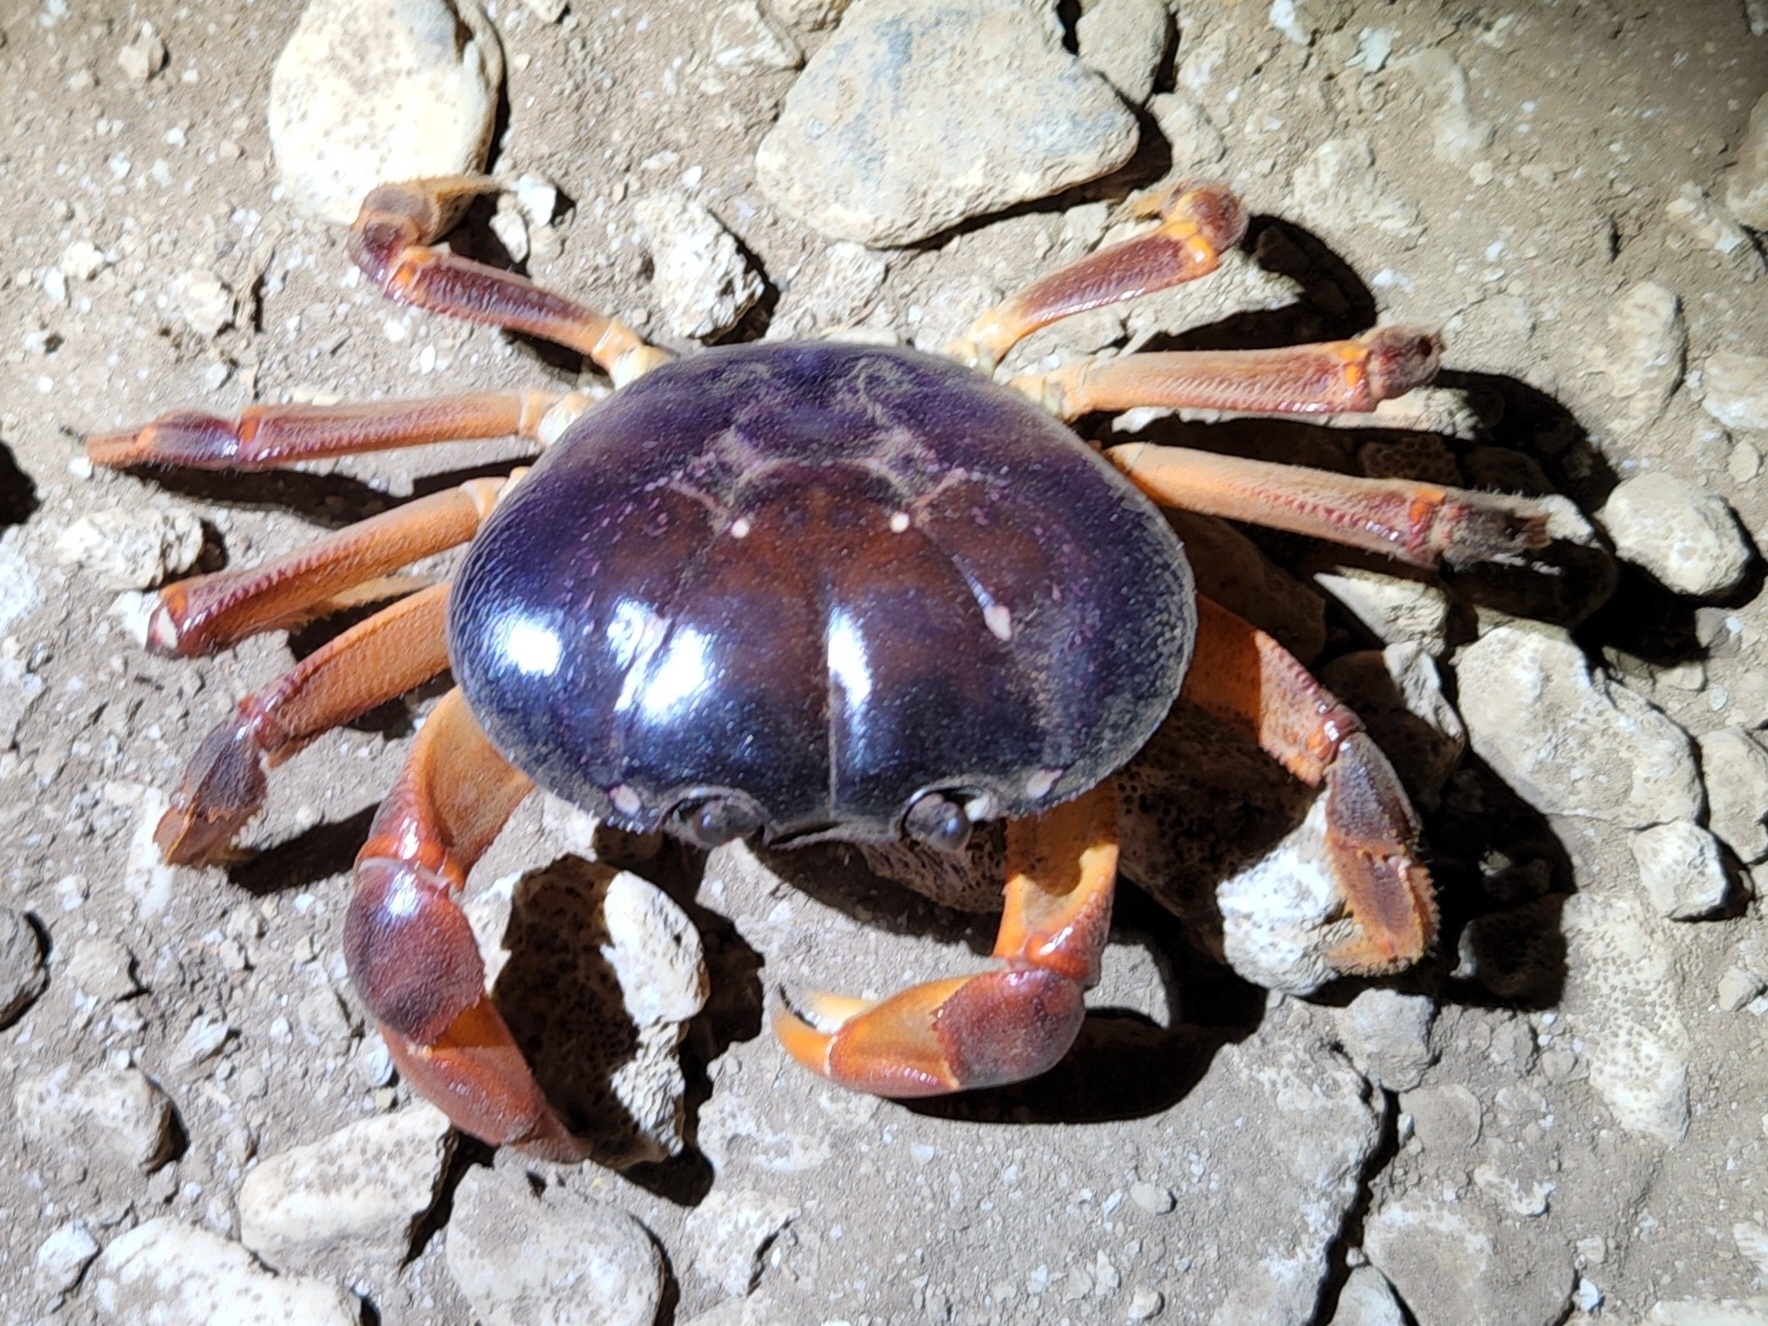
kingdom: Animalia
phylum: Arthropoda
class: Malacostraca
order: Decapoda
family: Gecarcinidae
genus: Johngarthia
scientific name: Johngarthia oceanica
